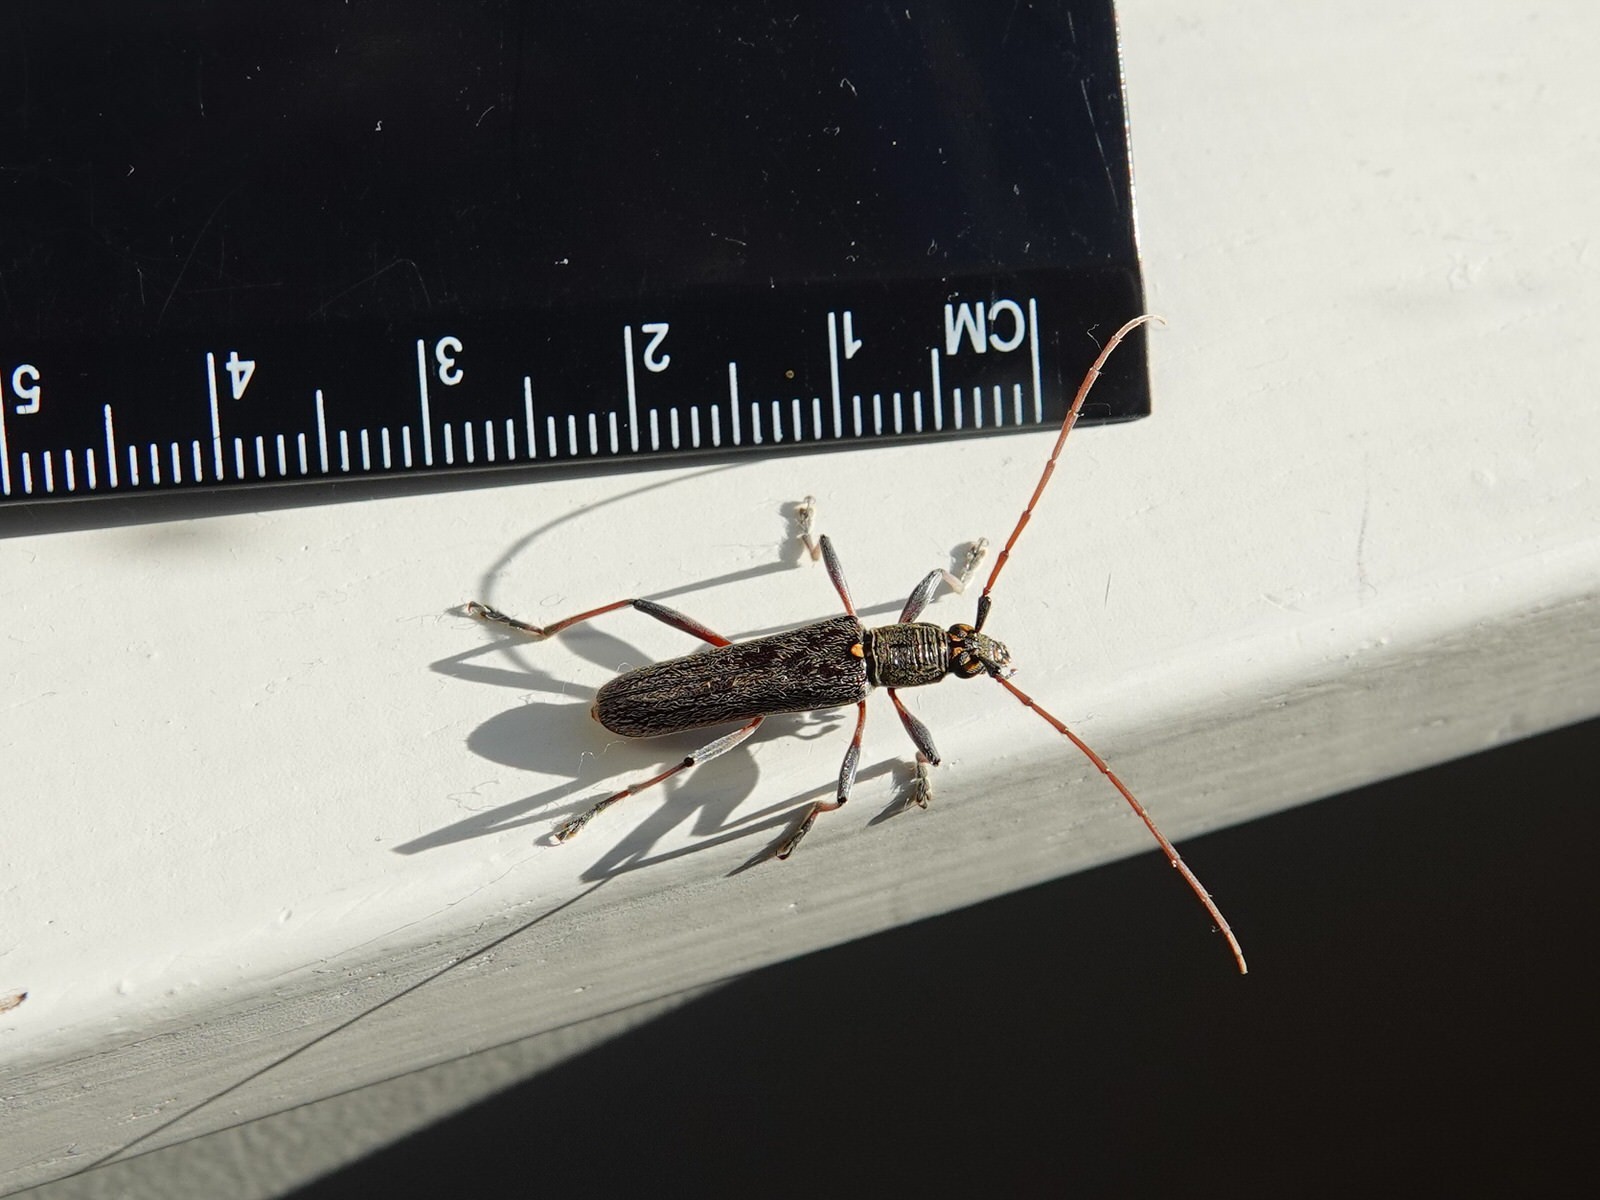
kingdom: Animalia
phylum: Arthropoda
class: Insecta
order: Coleoptera
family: Cerambycidae
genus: Oemona
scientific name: Oemona hirta
